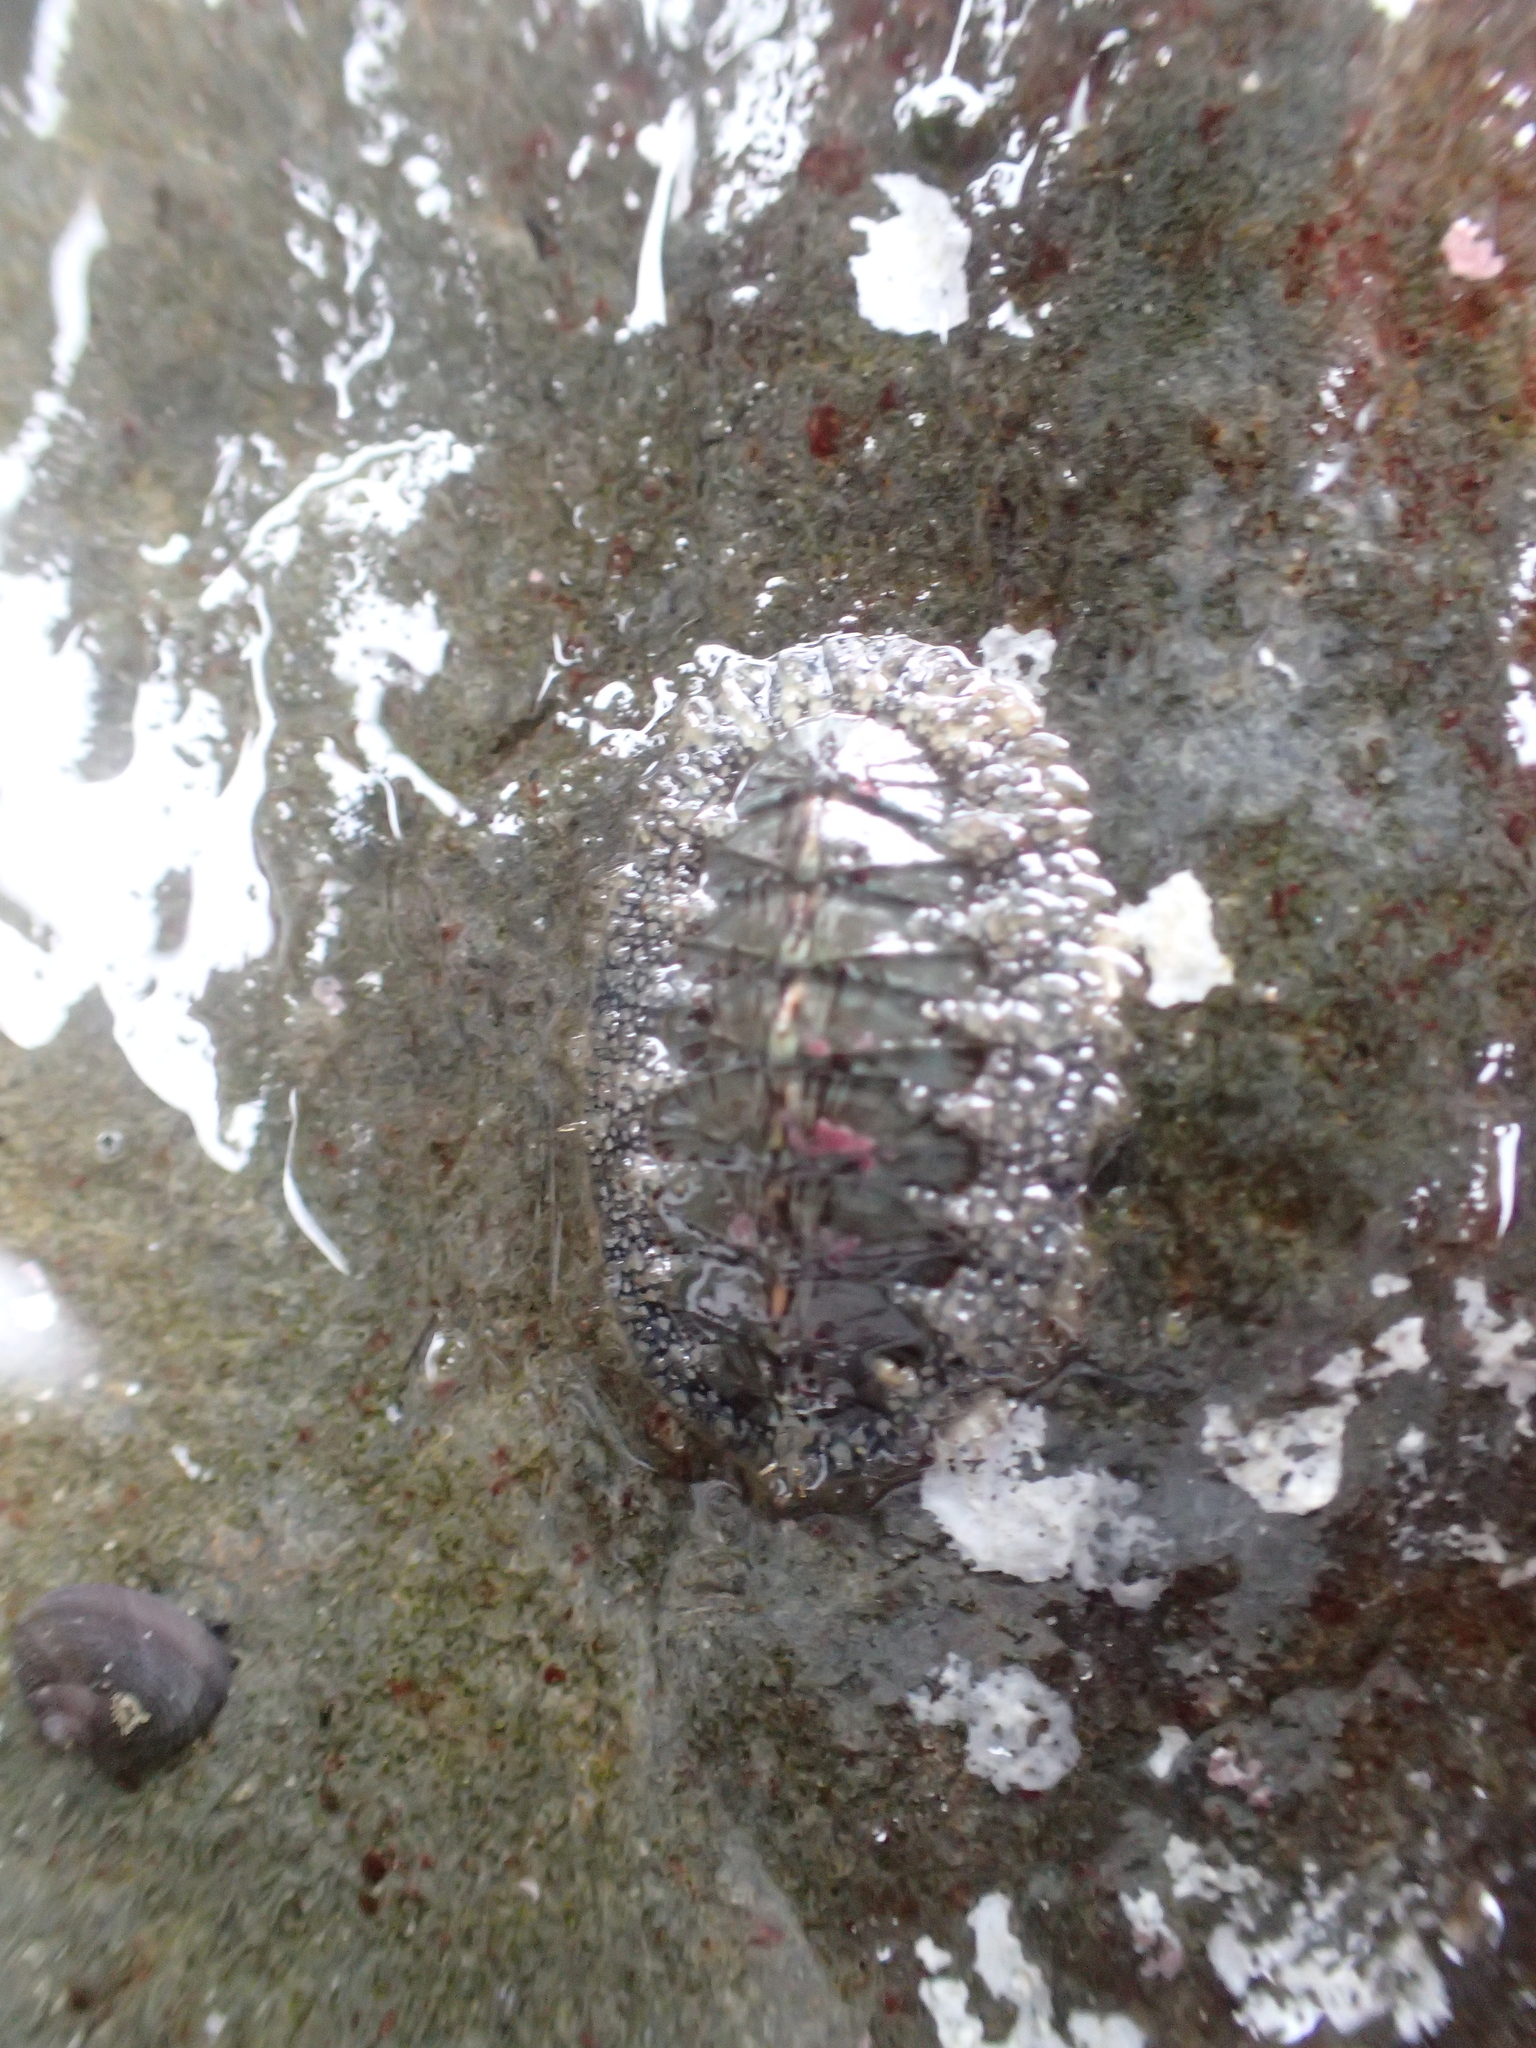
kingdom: Animalia
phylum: Mollusca
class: Polyplacophora
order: Chitonida
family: Mopaliidae
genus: Mopalia
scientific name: Mopalia lignosa
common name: Woody chiton
